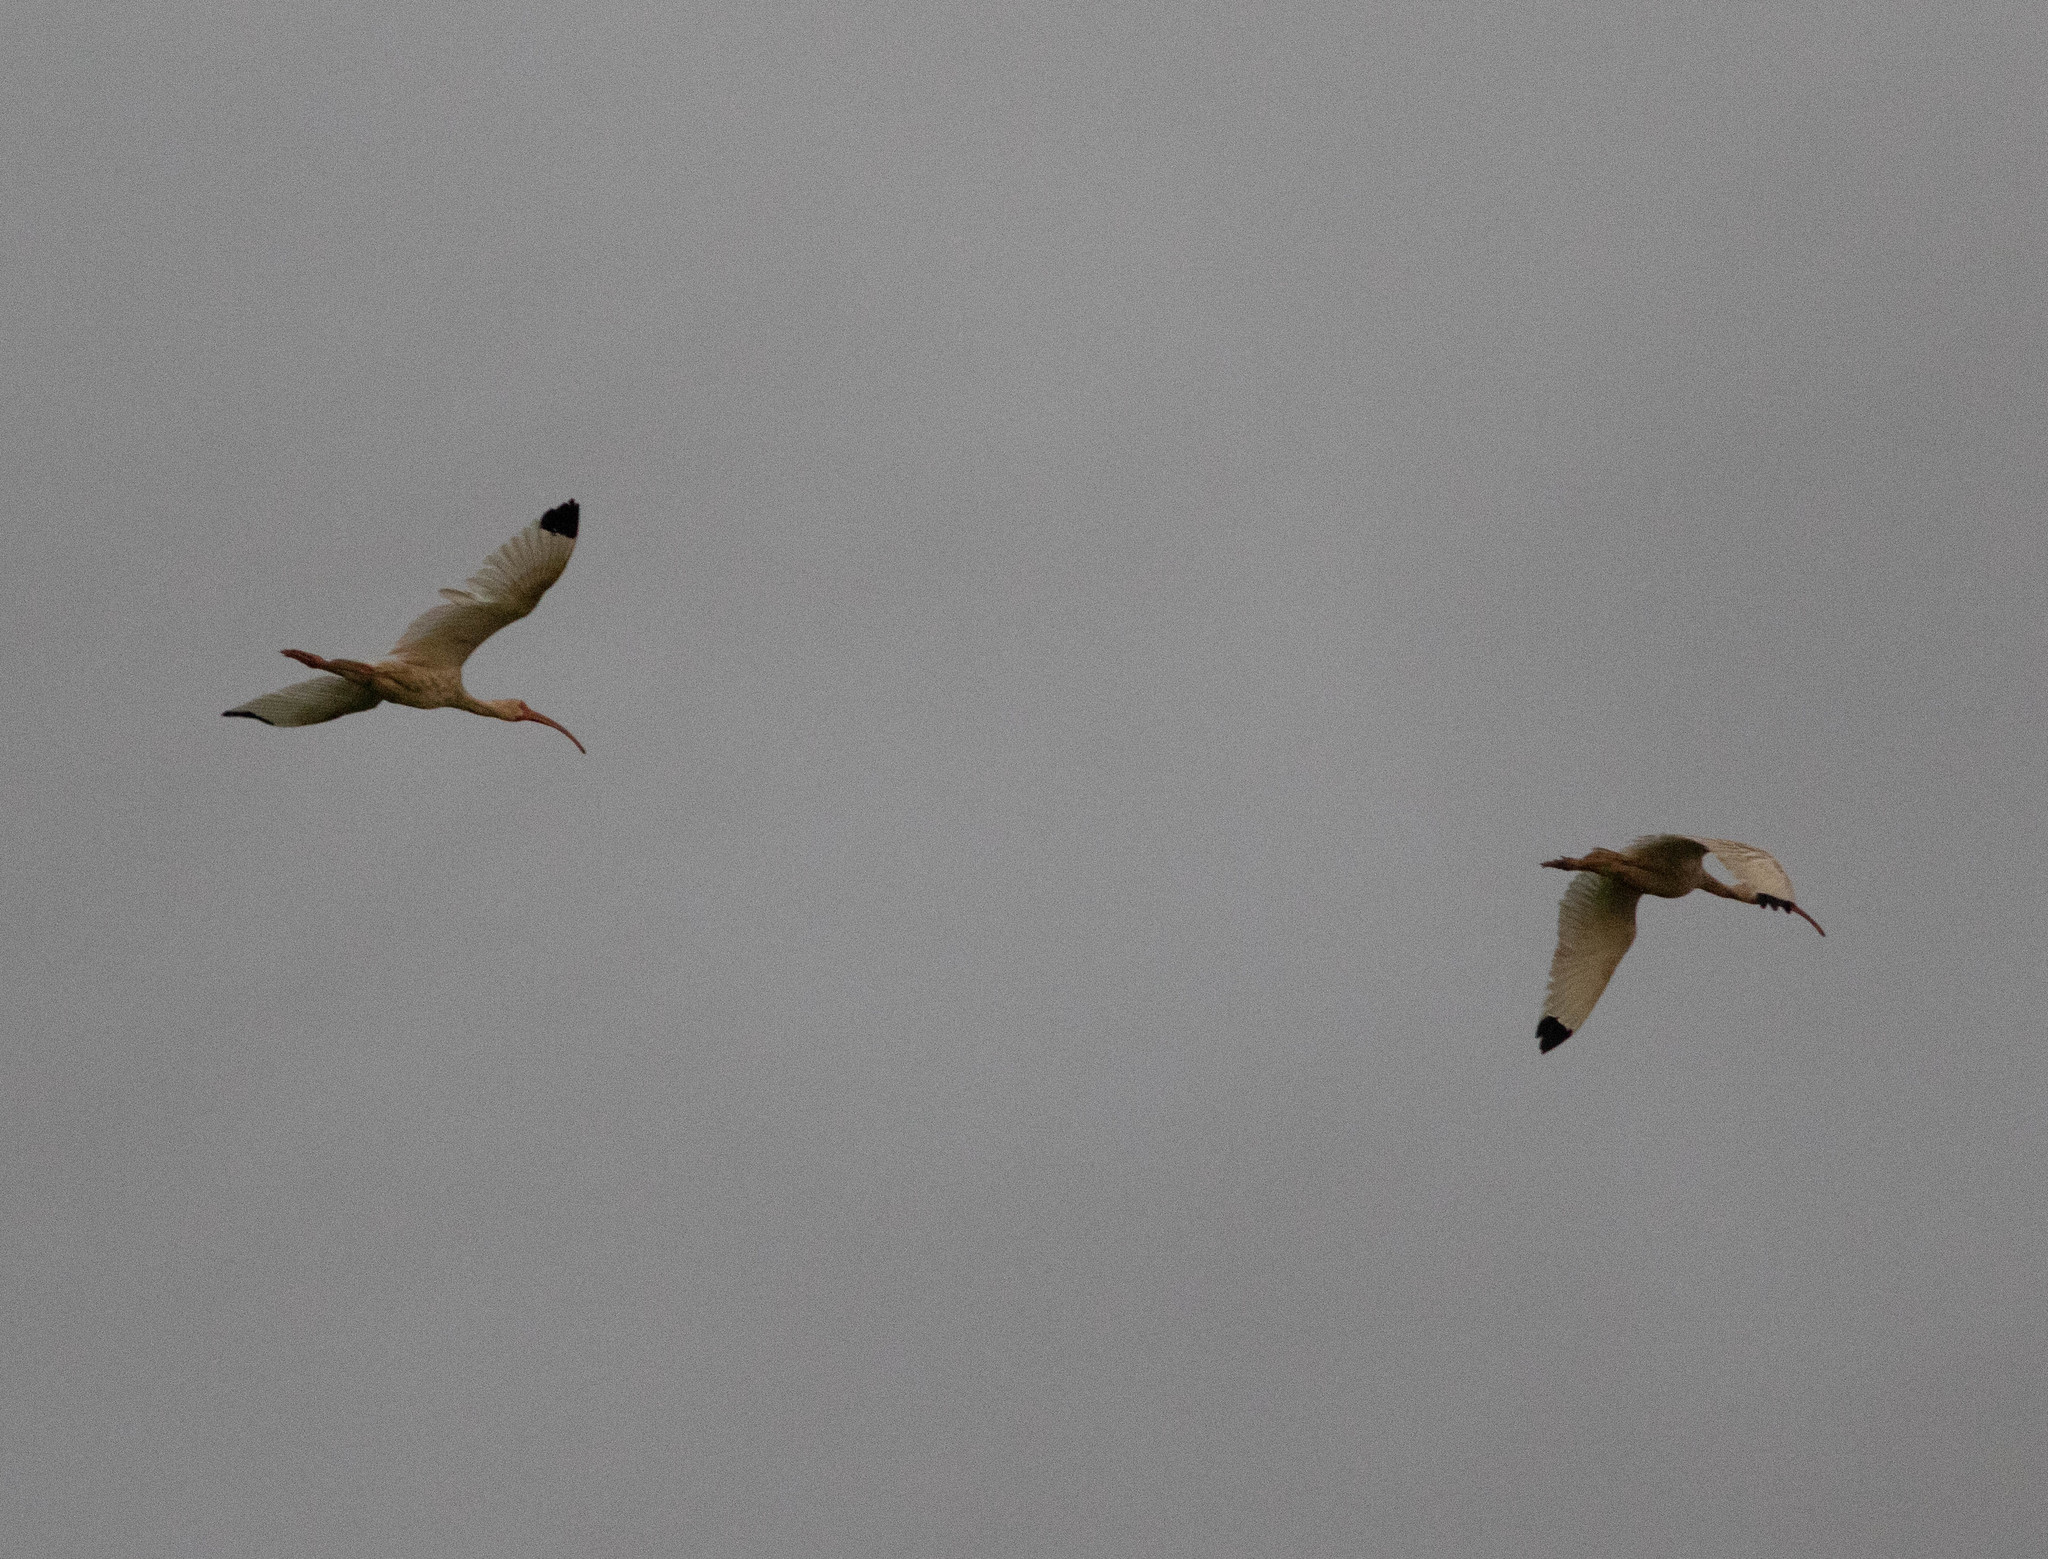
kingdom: Animalia
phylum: Chordata
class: Aves
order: Pelecaniformes
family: Threskiornithidae
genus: Eudocimus
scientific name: Eudocimus albus
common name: White ibis
